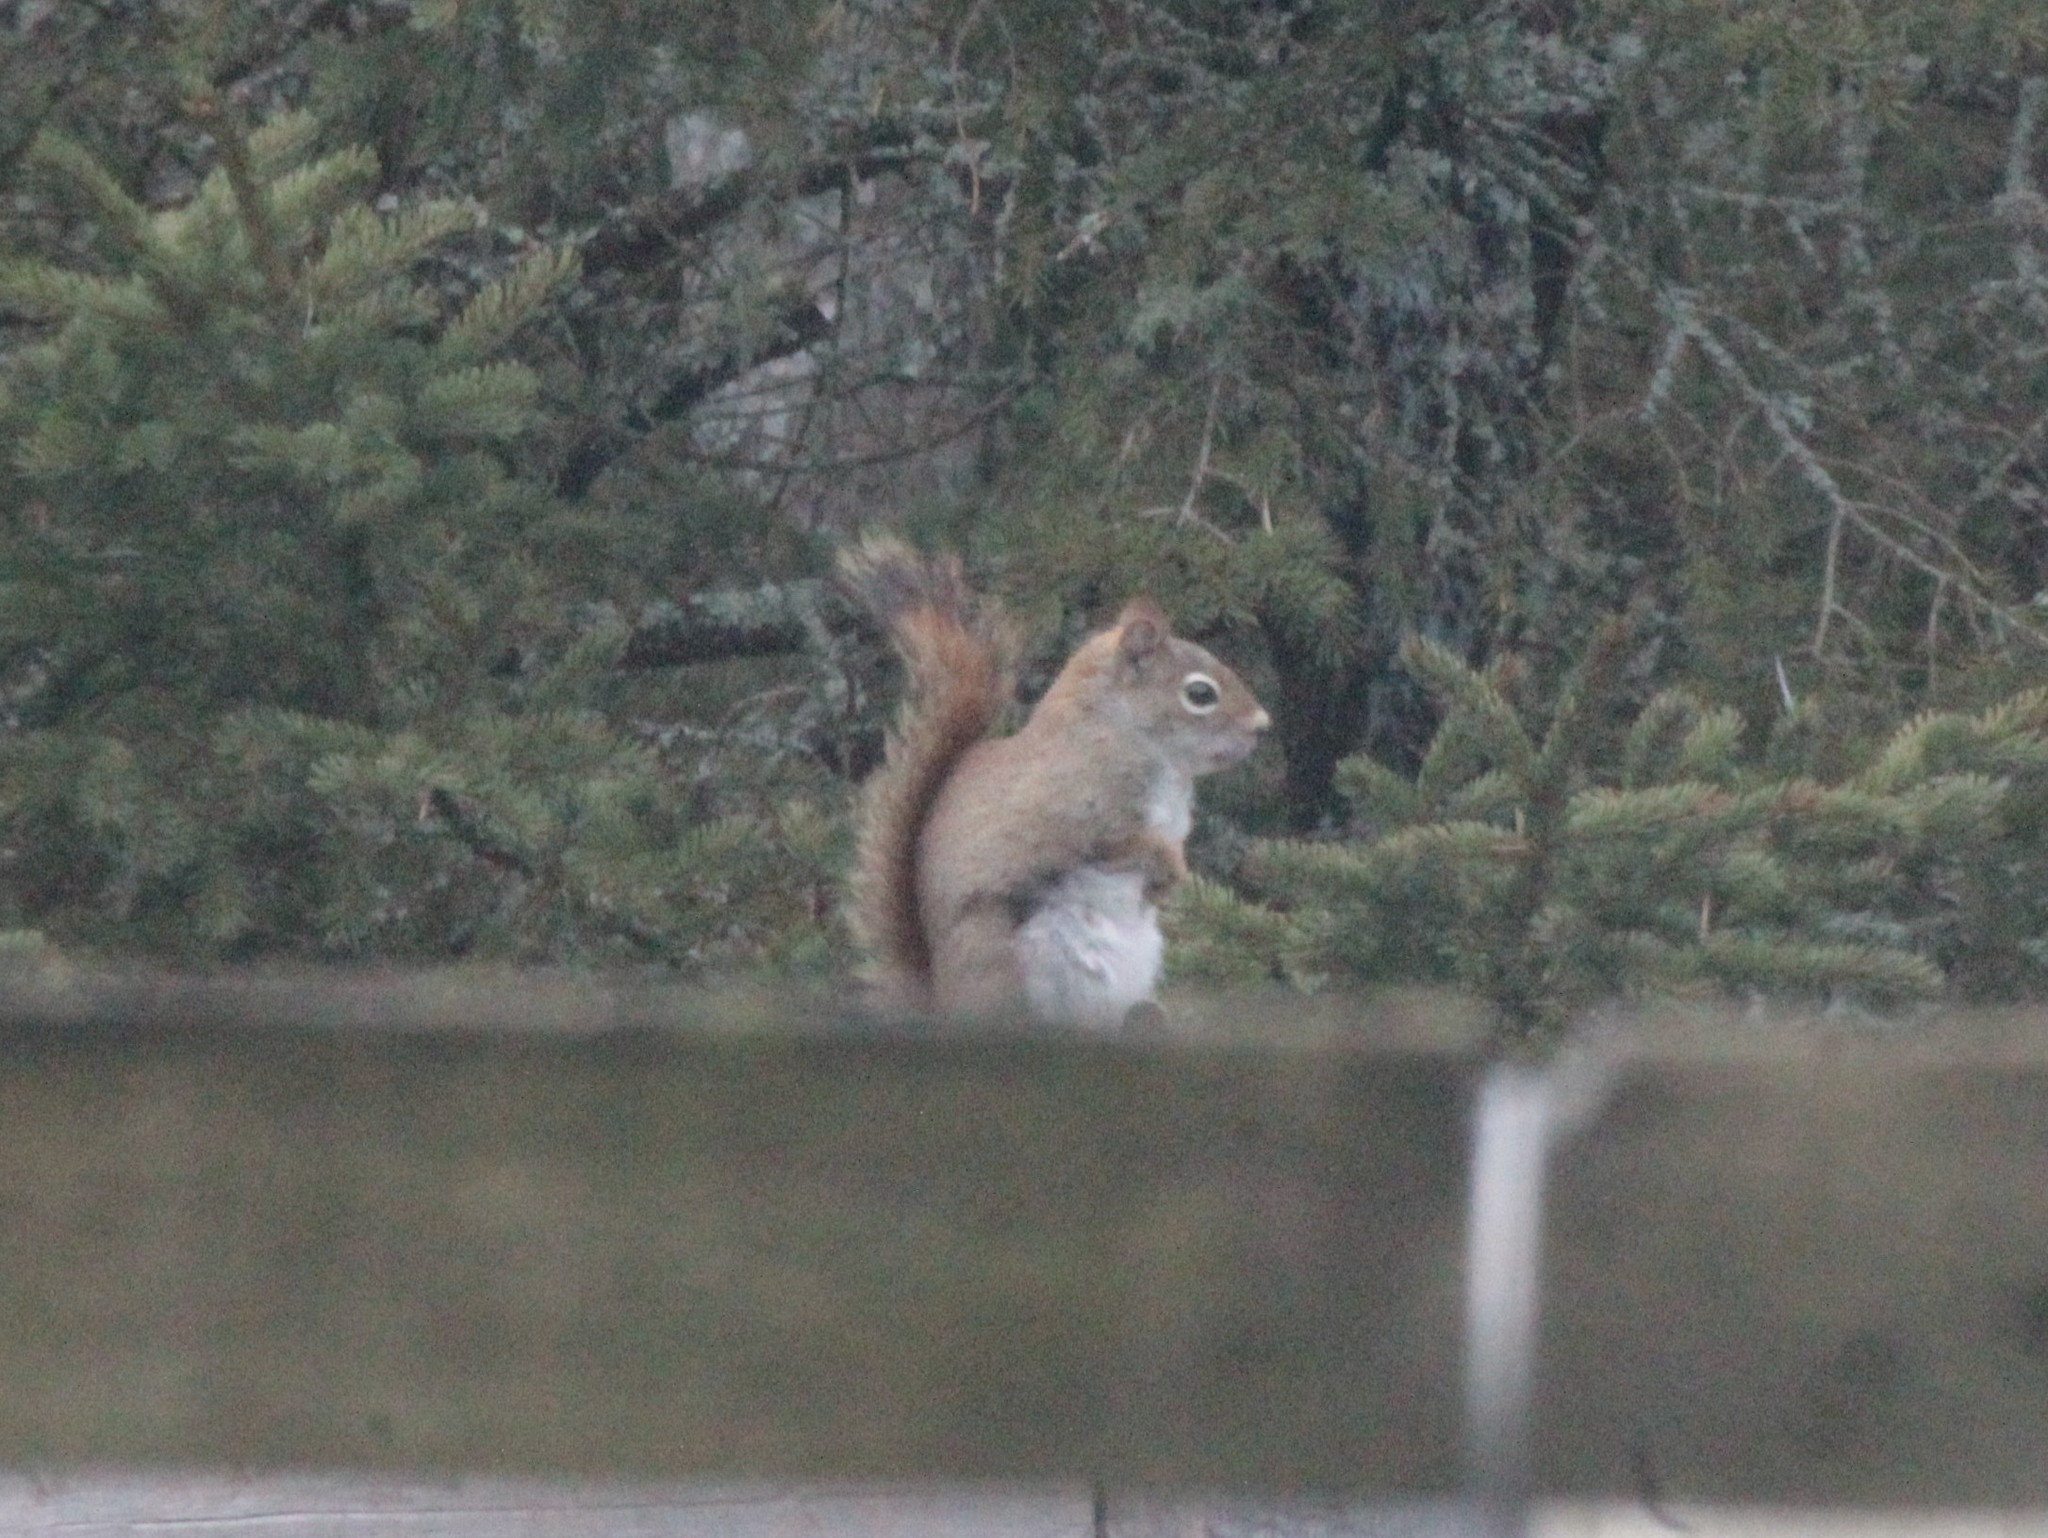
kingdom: Animalia
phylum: Chordata
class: Mammalia
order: Rodentia
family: Sciuridae
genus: Tamiasciurus
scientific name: Tamiasciurus hudsonicus
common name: Red squirrel
